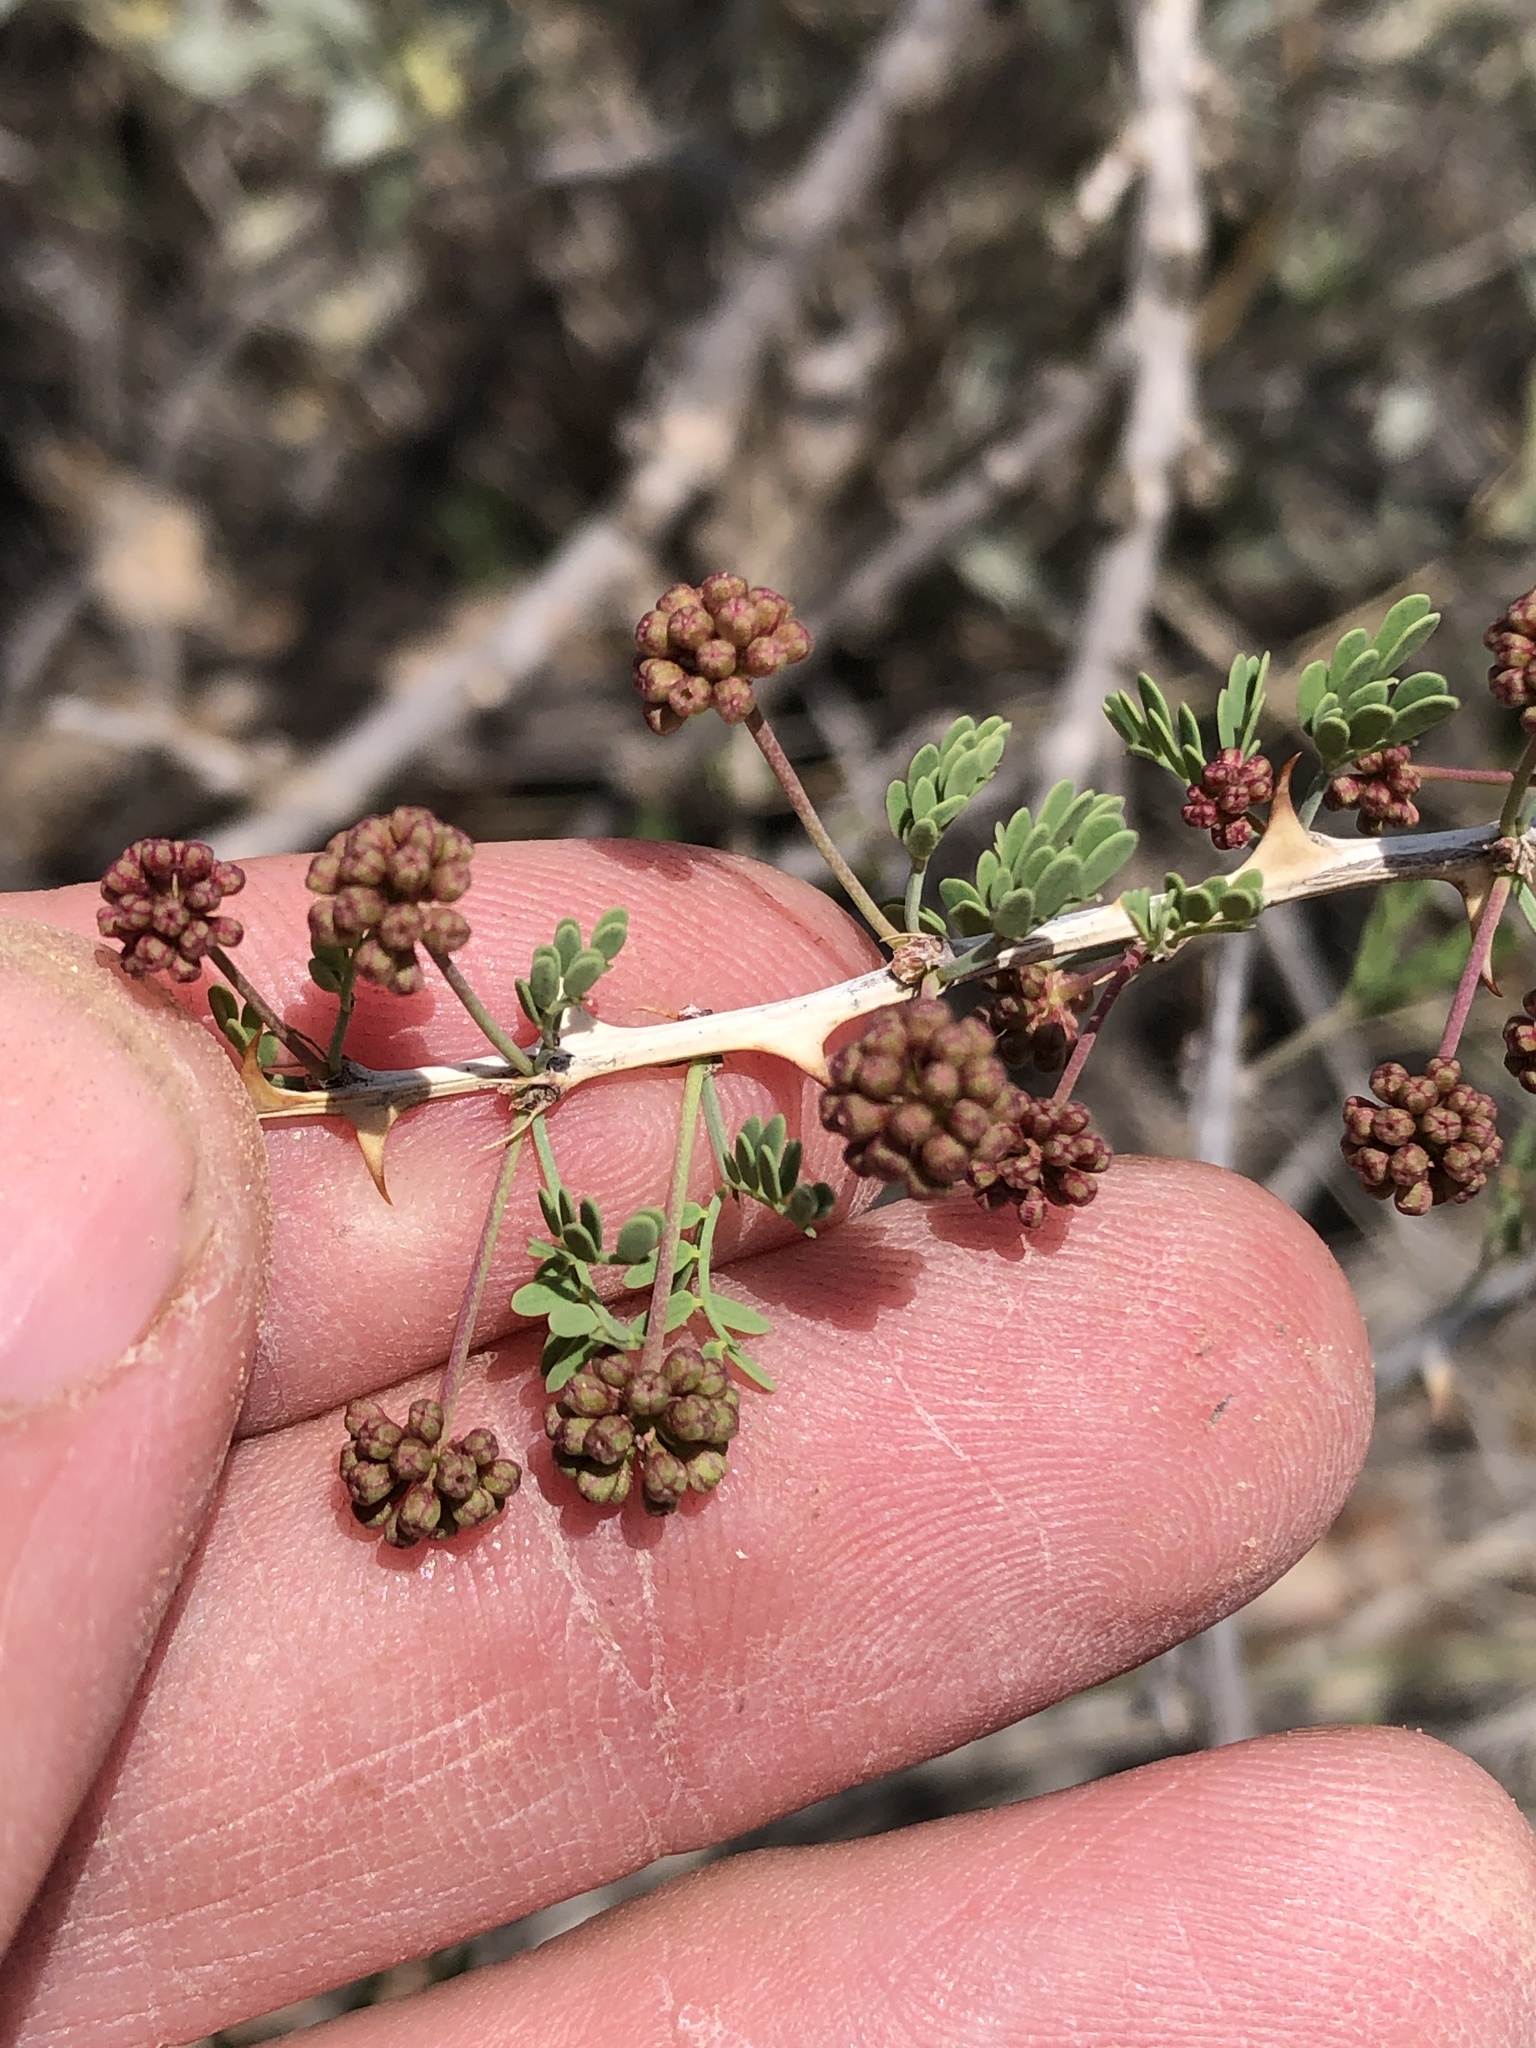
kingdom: Plantae
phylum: Tracheophyta
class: Magnoliopsida
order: Fabales
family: Fabaceae
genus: Mimosa
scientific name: Mimosa borealis
